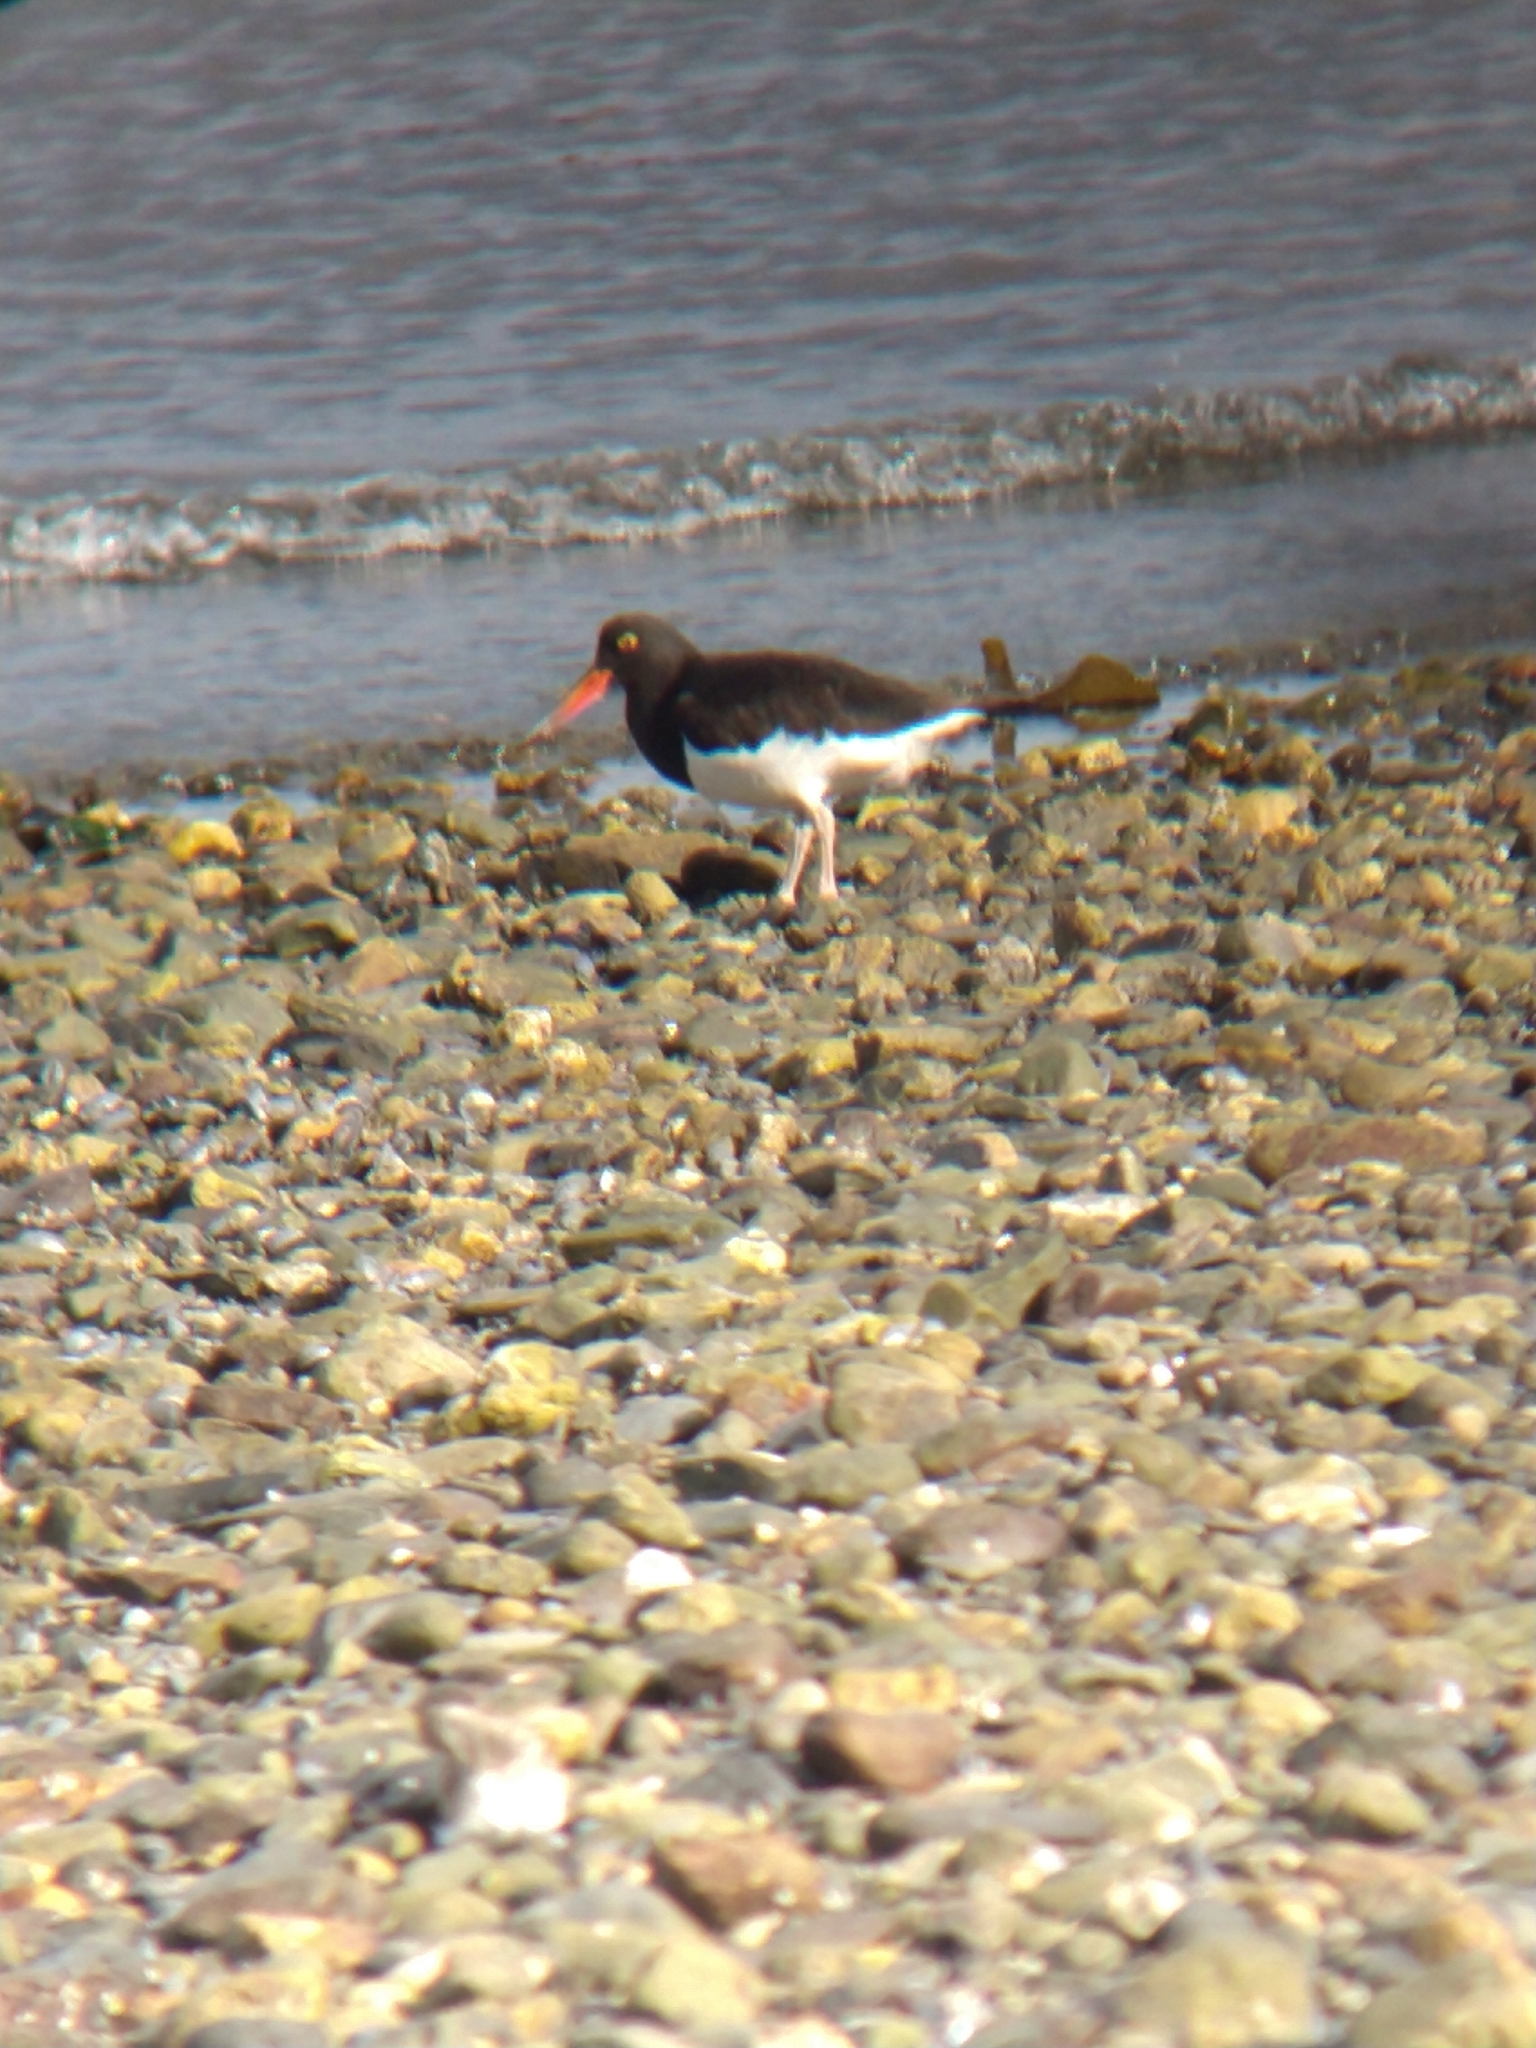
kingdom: Animalia
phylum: Chordata
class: Aves
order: Charadriiformes
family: Haematopodidae
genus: Haematopus
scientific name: Haematopus leucopodus
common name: Magellanic oystercatcher
